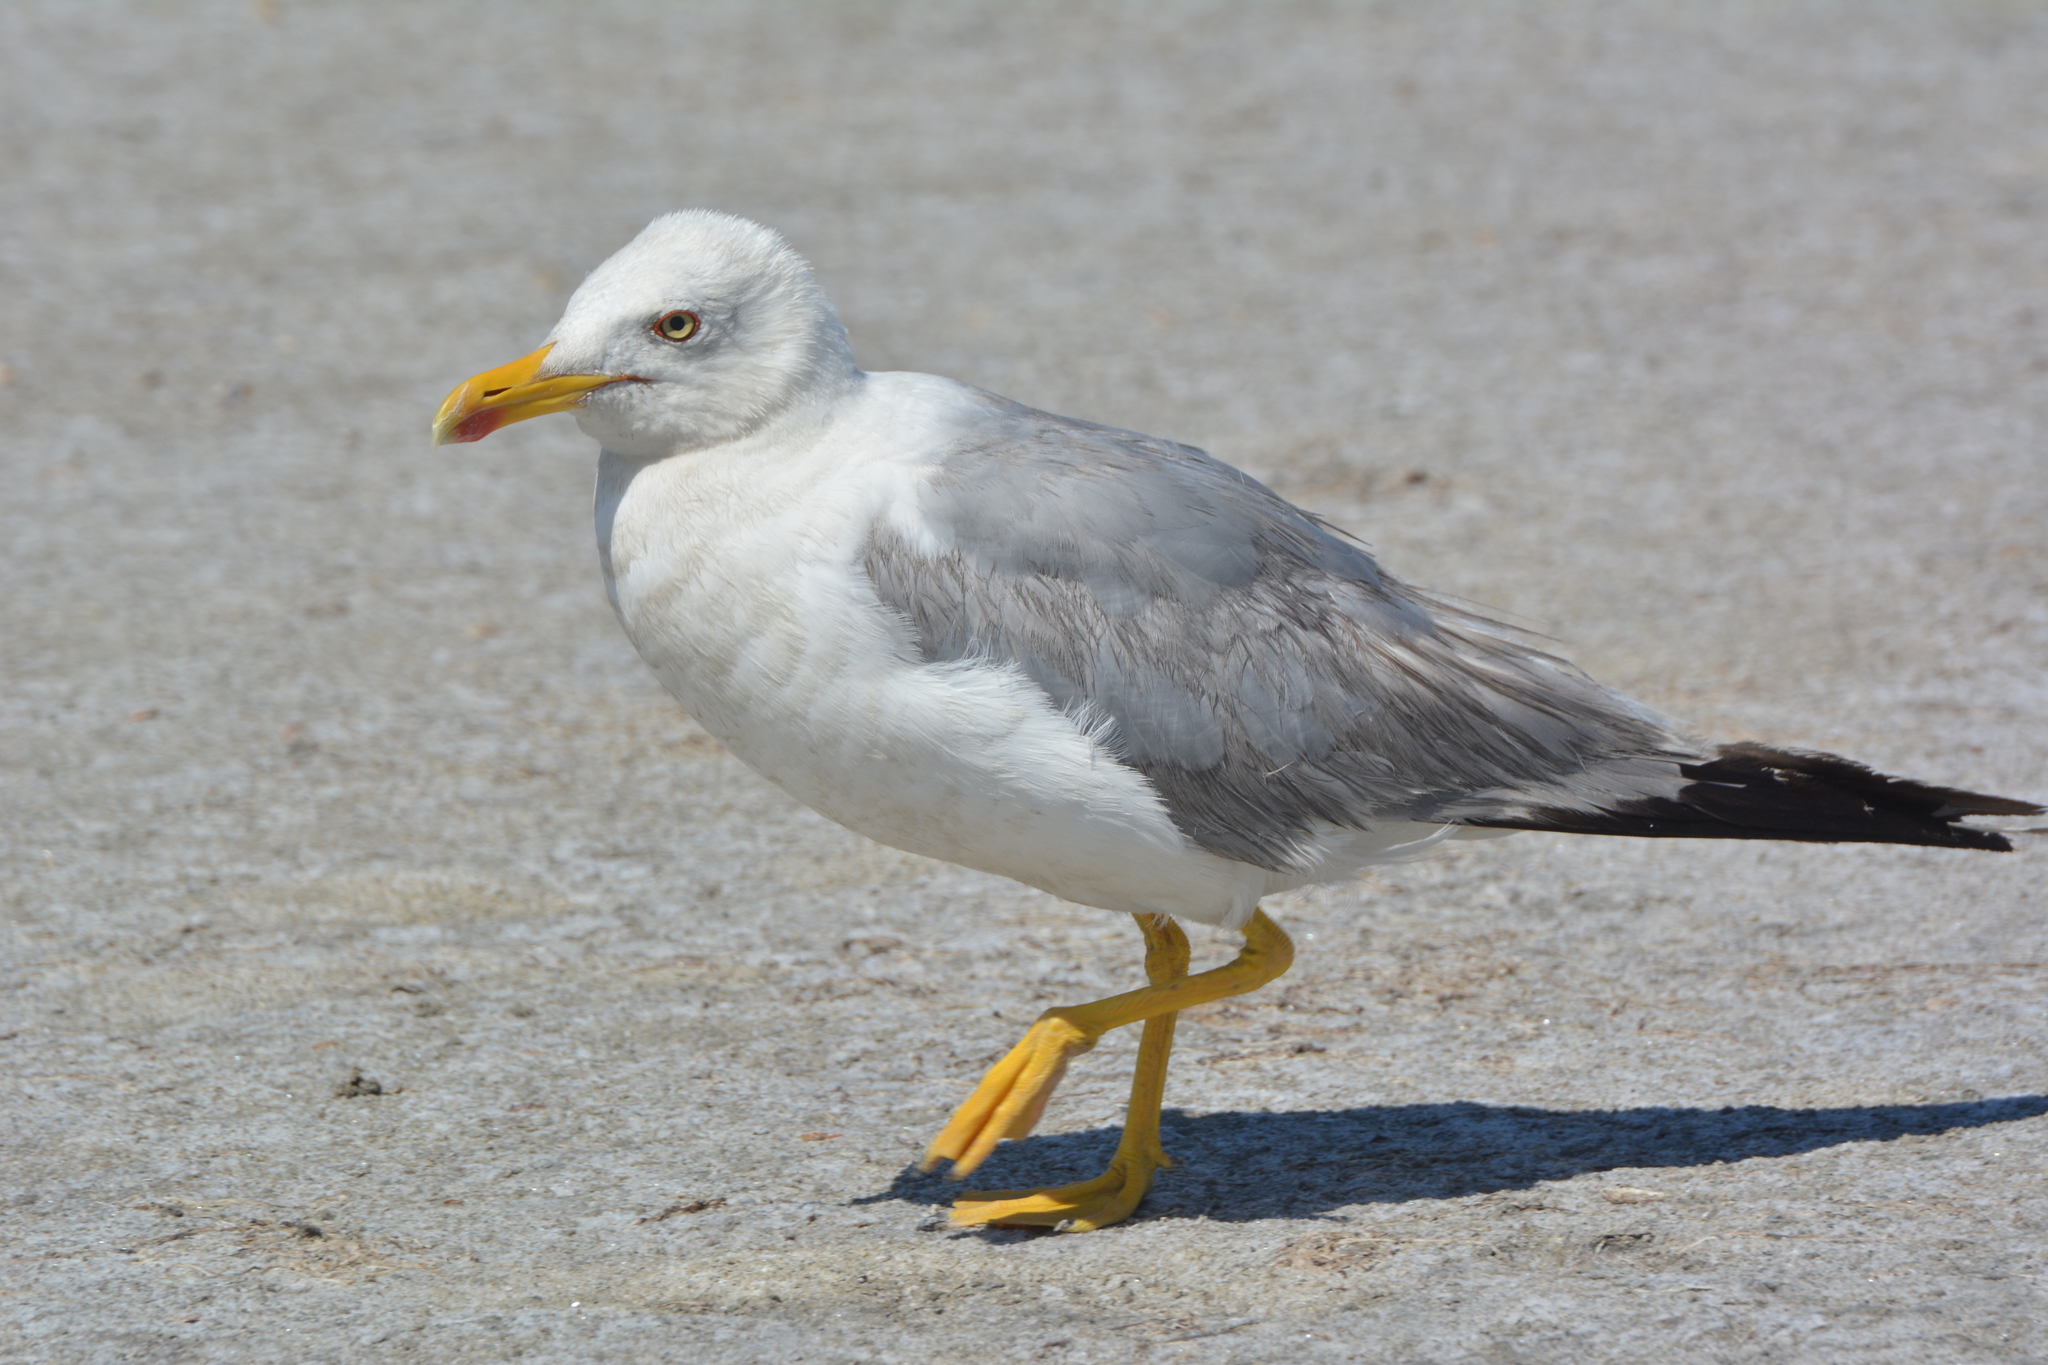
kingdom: Animalia
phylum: Chordata
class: Aves
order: Charadriiformes
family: Laridae
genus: Larus
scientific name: Larus michahellis
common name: Yellow-legged gull
